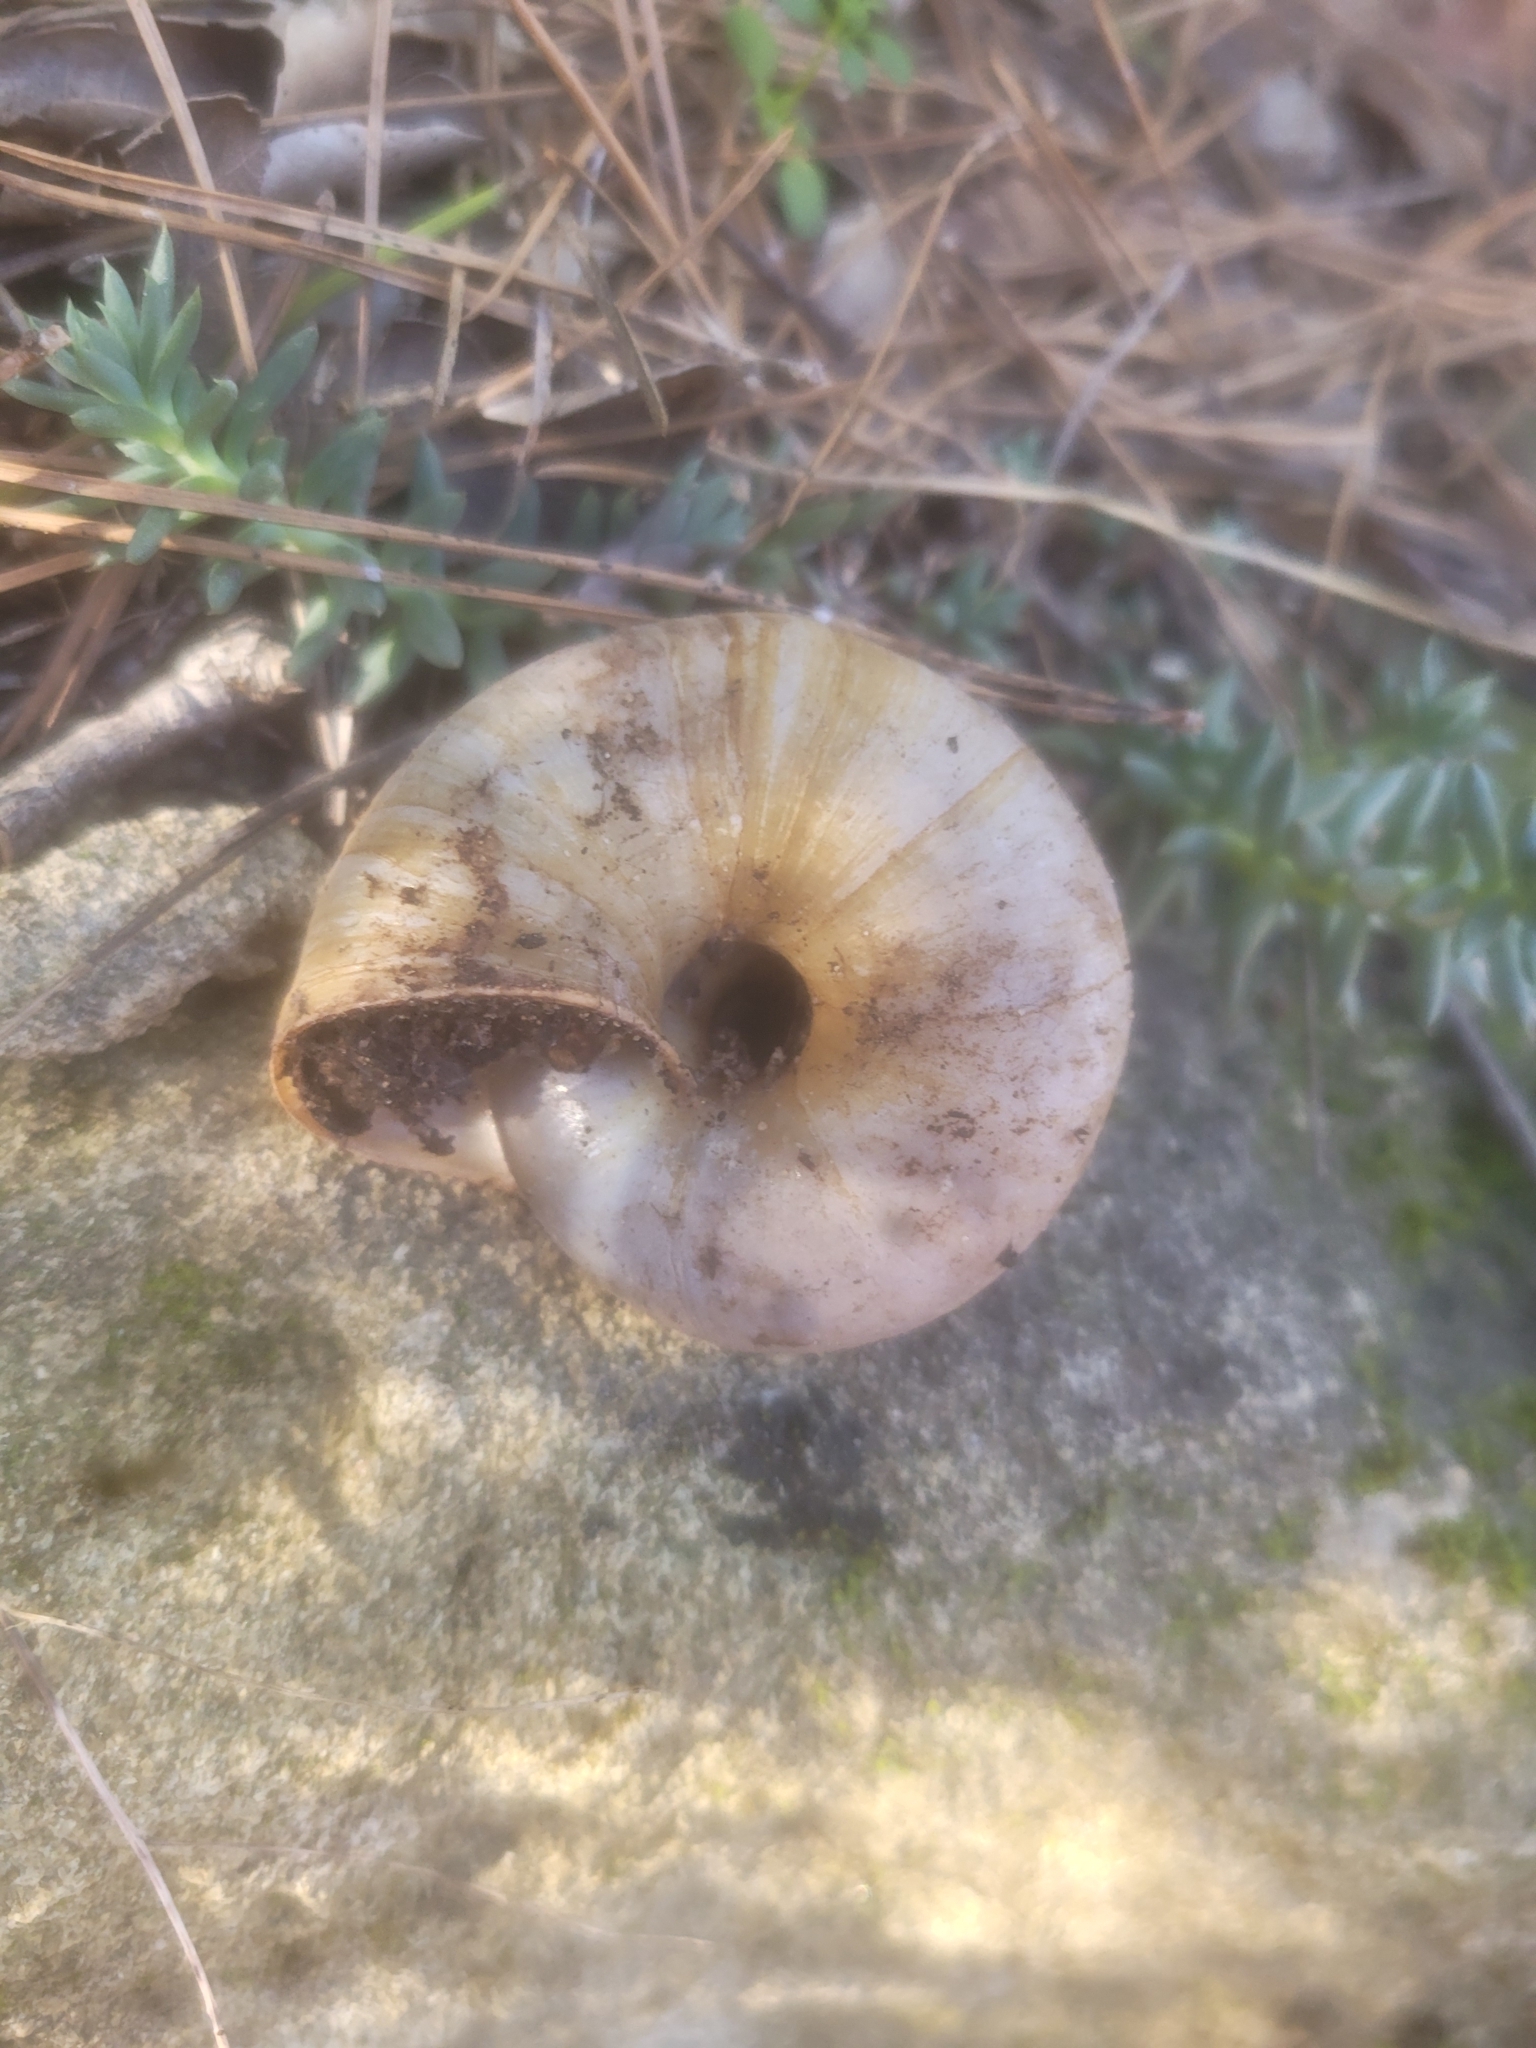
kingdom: Animalia
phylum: Mollusca
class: Gastropoda
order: Stylommatophora
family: Zonitidae
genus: Zonites
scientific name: Zonites algirus
